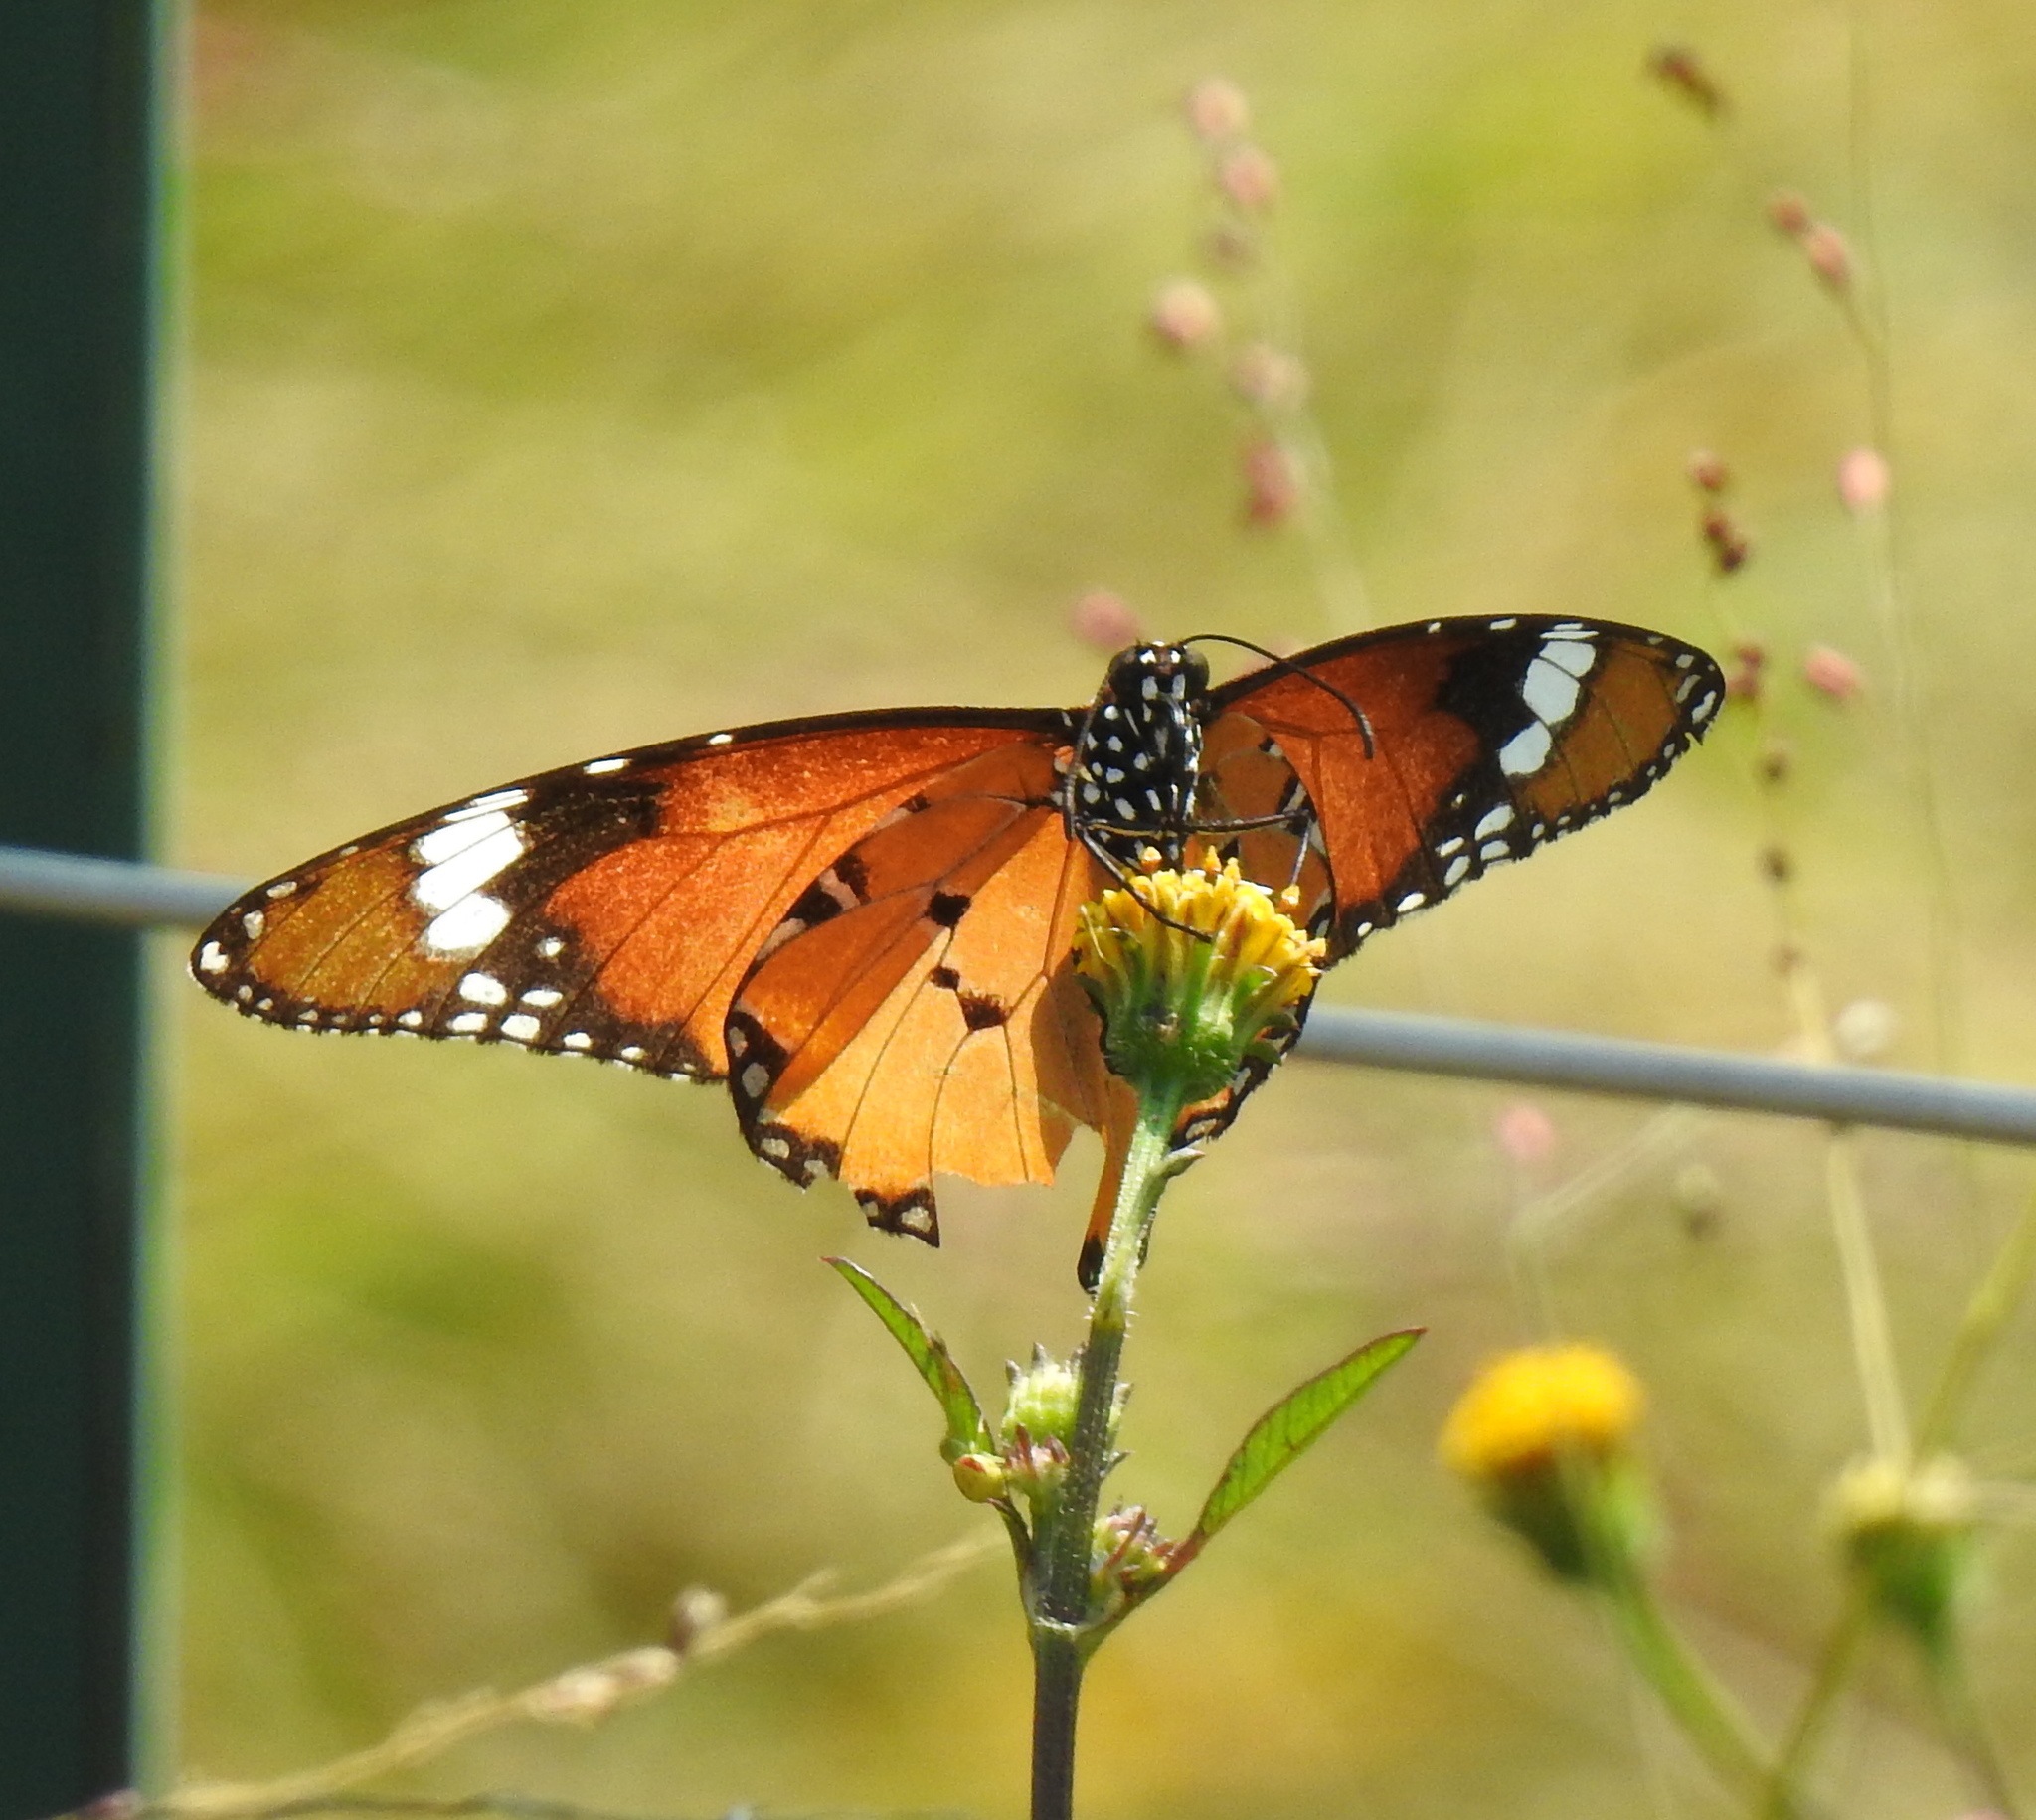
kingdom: Animalia
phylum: Arthropoda
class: Insecta
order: Lepidoptera
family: Nymphalidae
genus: Danaus
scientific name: Danaus chrysippus
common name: Plain tiger
